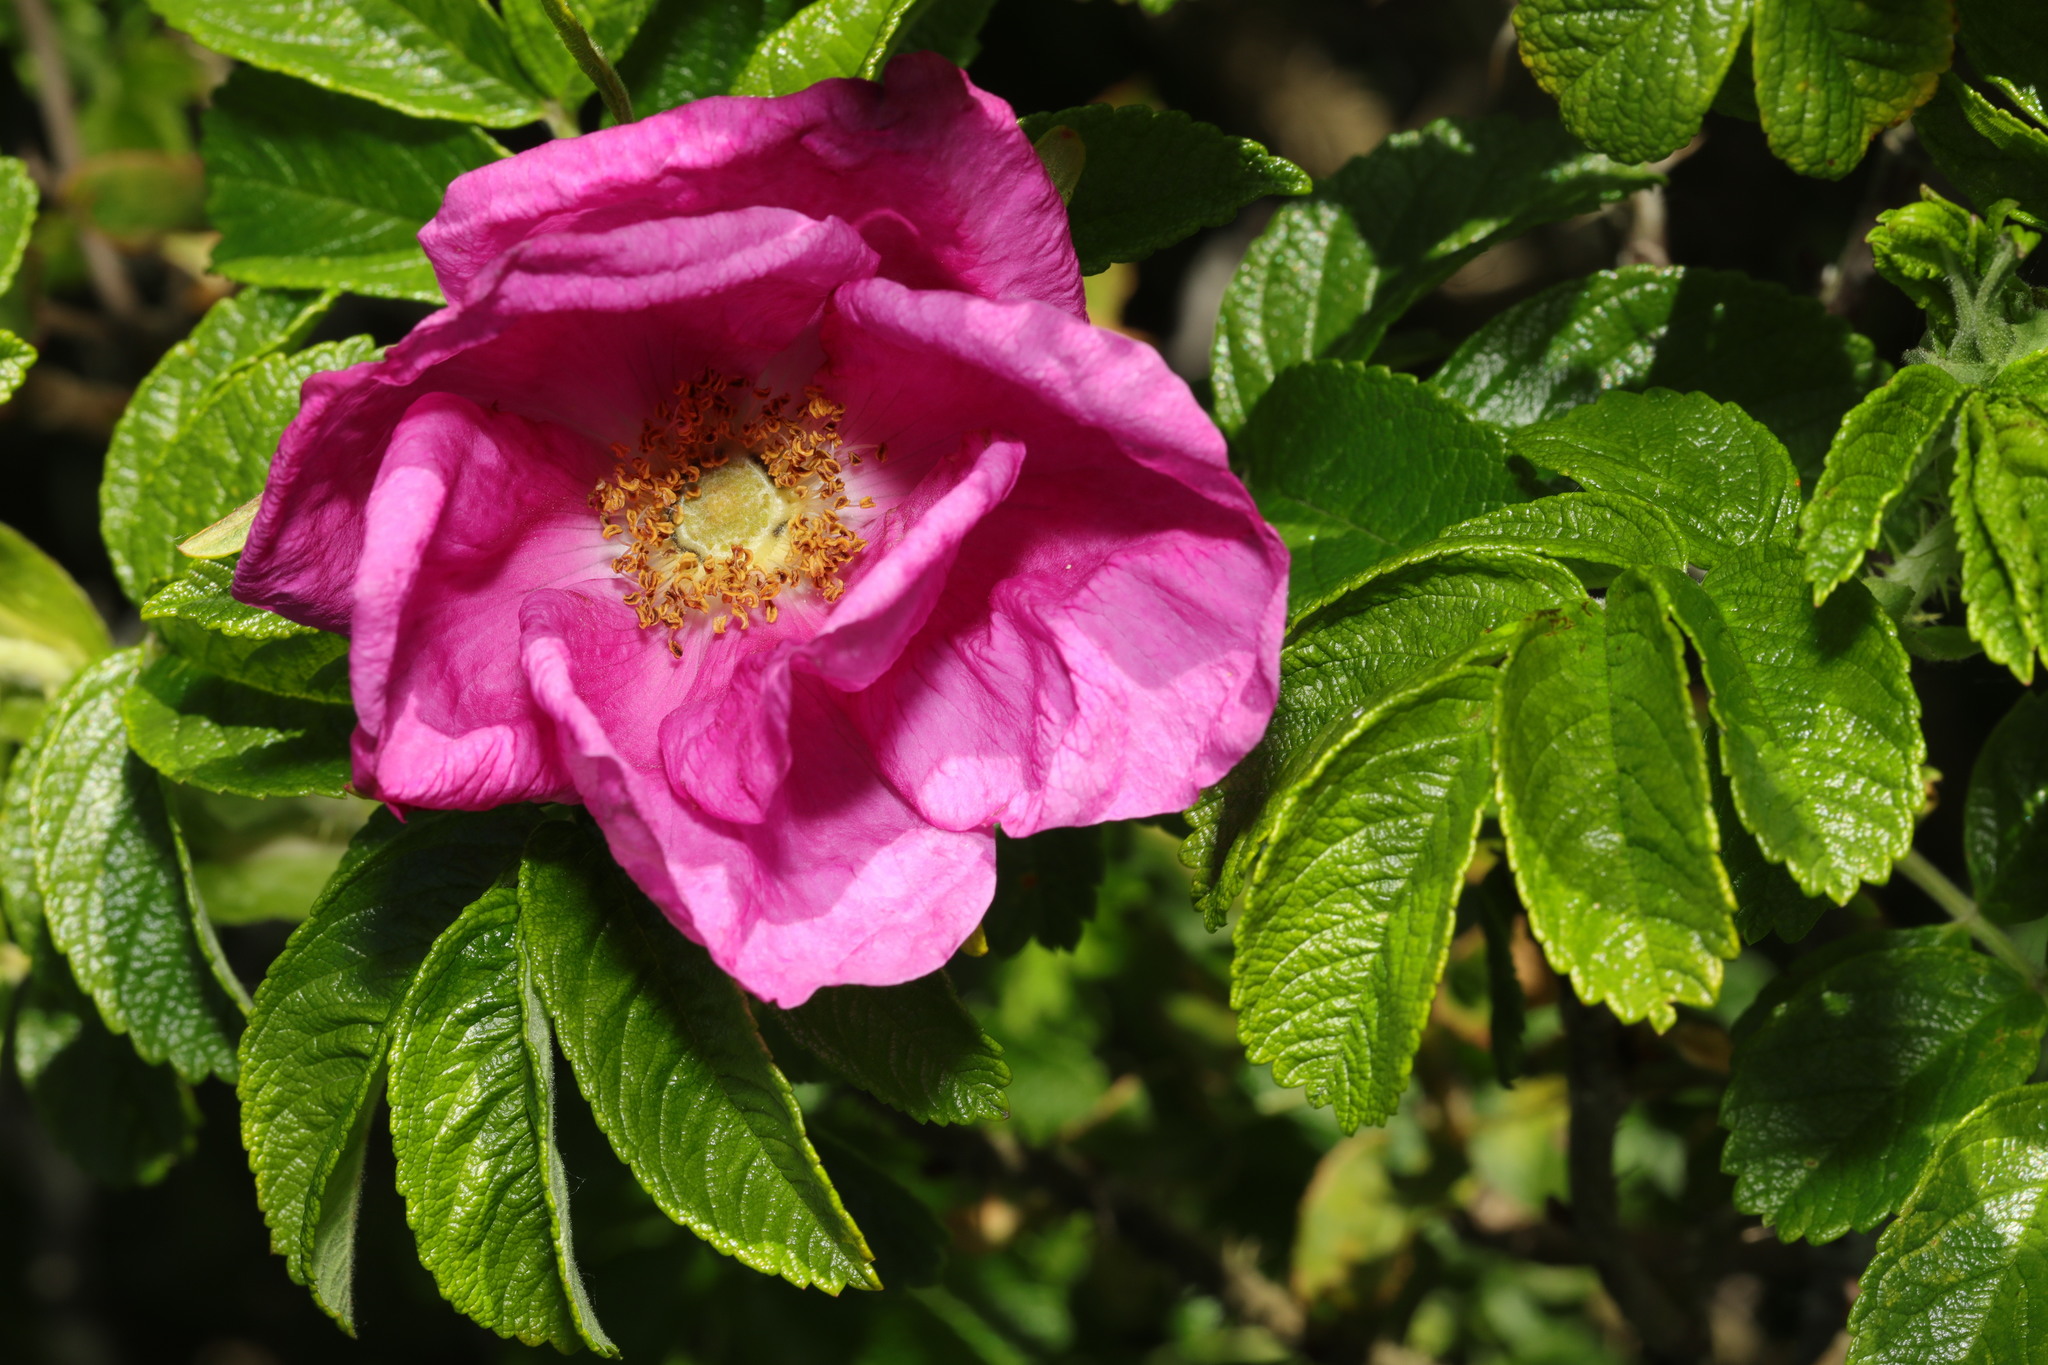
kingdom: Plantae
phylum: Tracheophyta
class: Magnoliopsida
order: Rosales
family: Rosaceae
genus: Rosa
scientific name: Rosa rugosa
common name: Japanese rose
